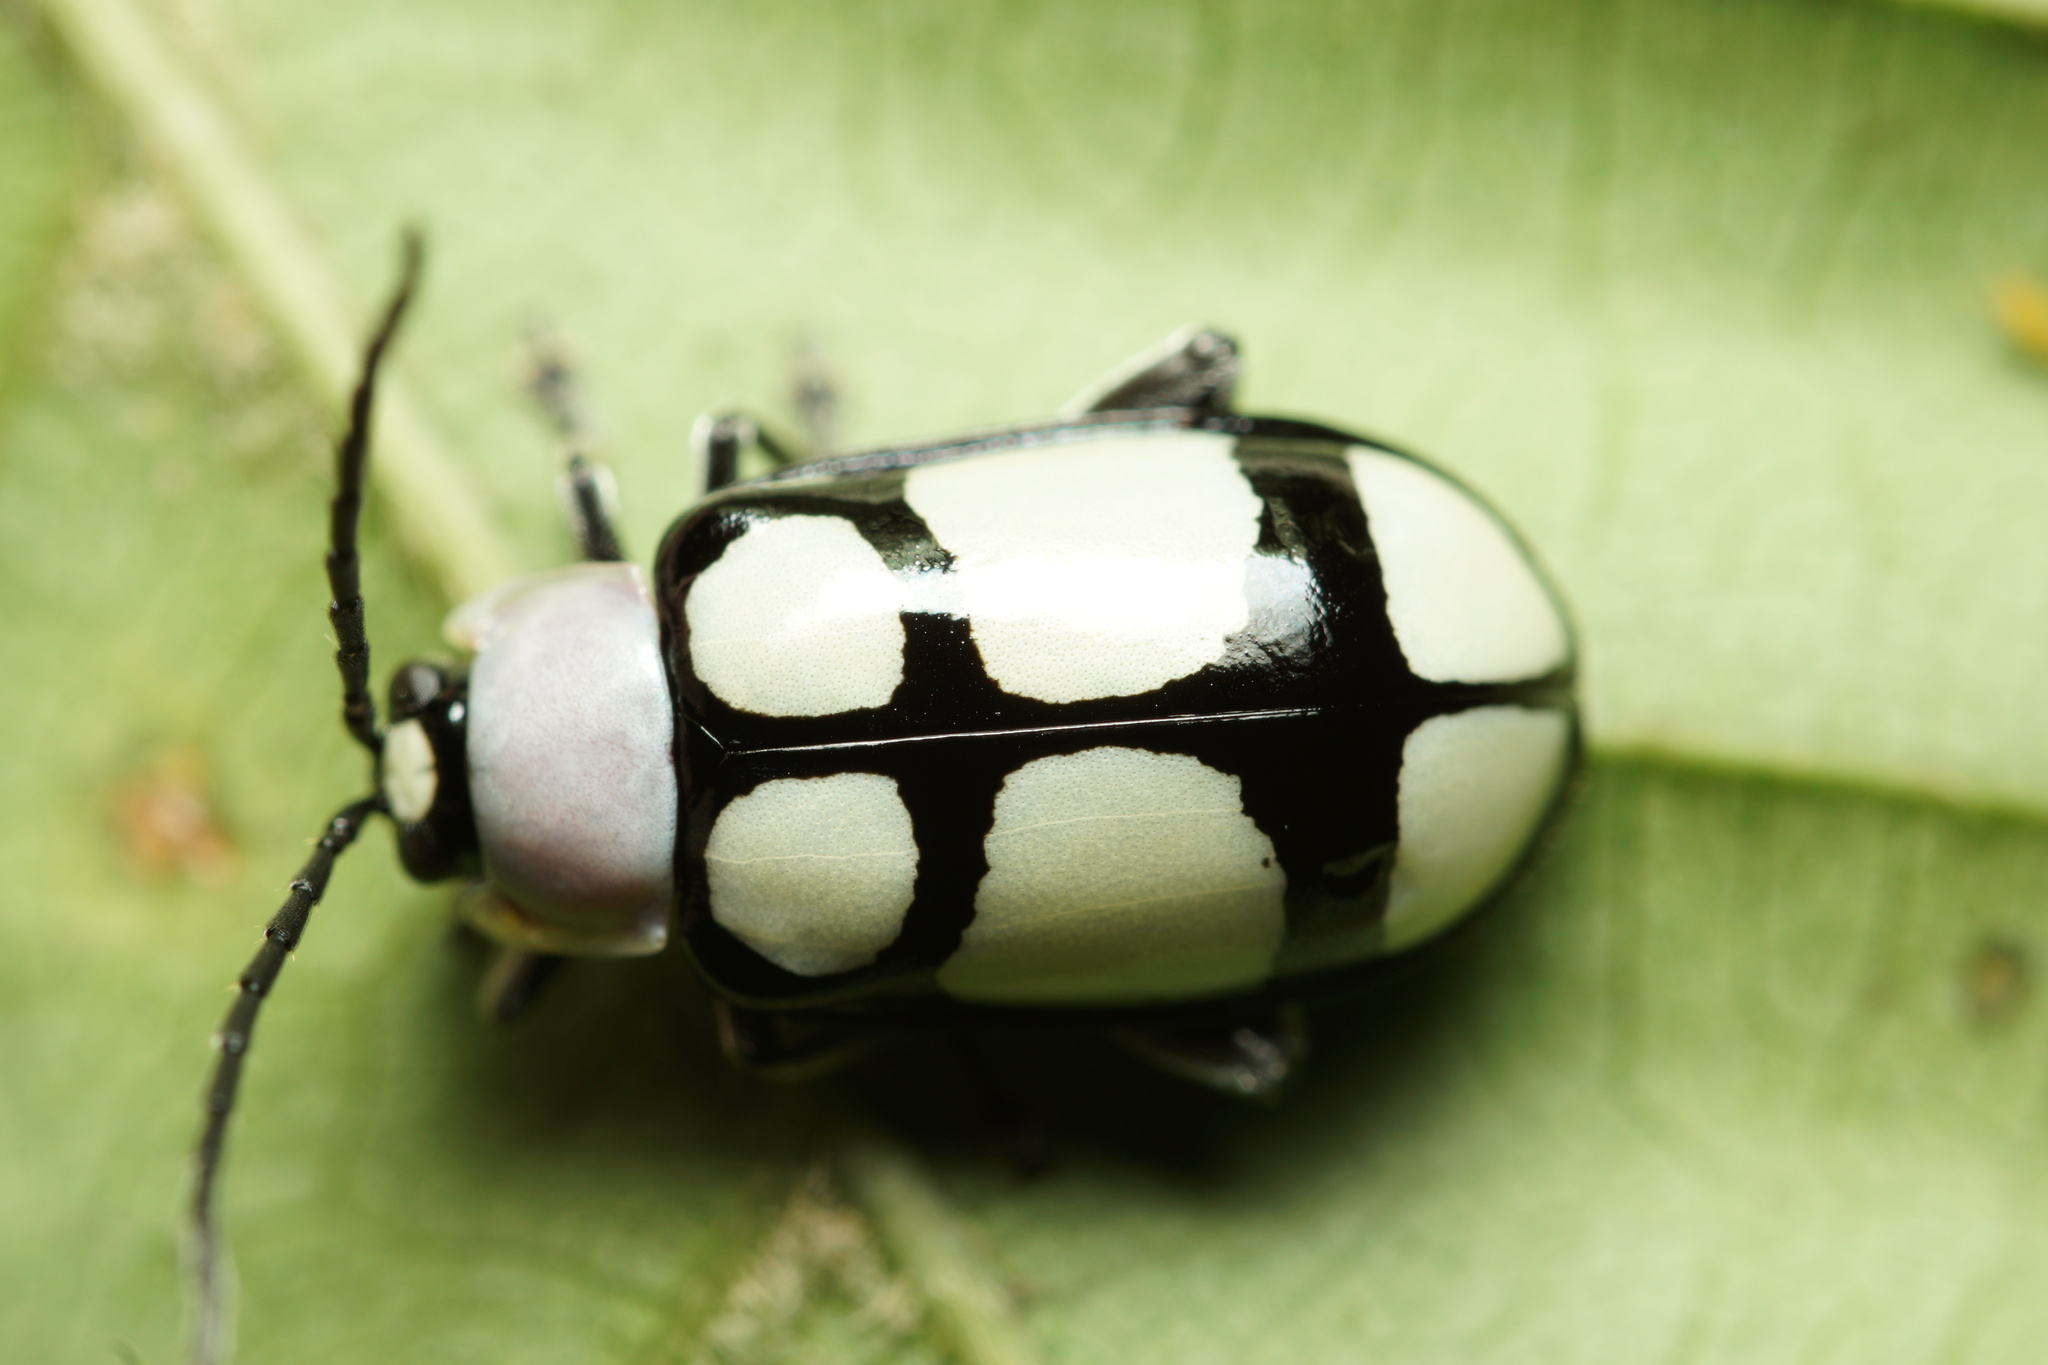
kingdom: Animalia
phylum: Arthropoda
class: Insecta
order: Coleoptera
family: Chrysomelidae
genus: Omophoita
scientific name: Omophoita
